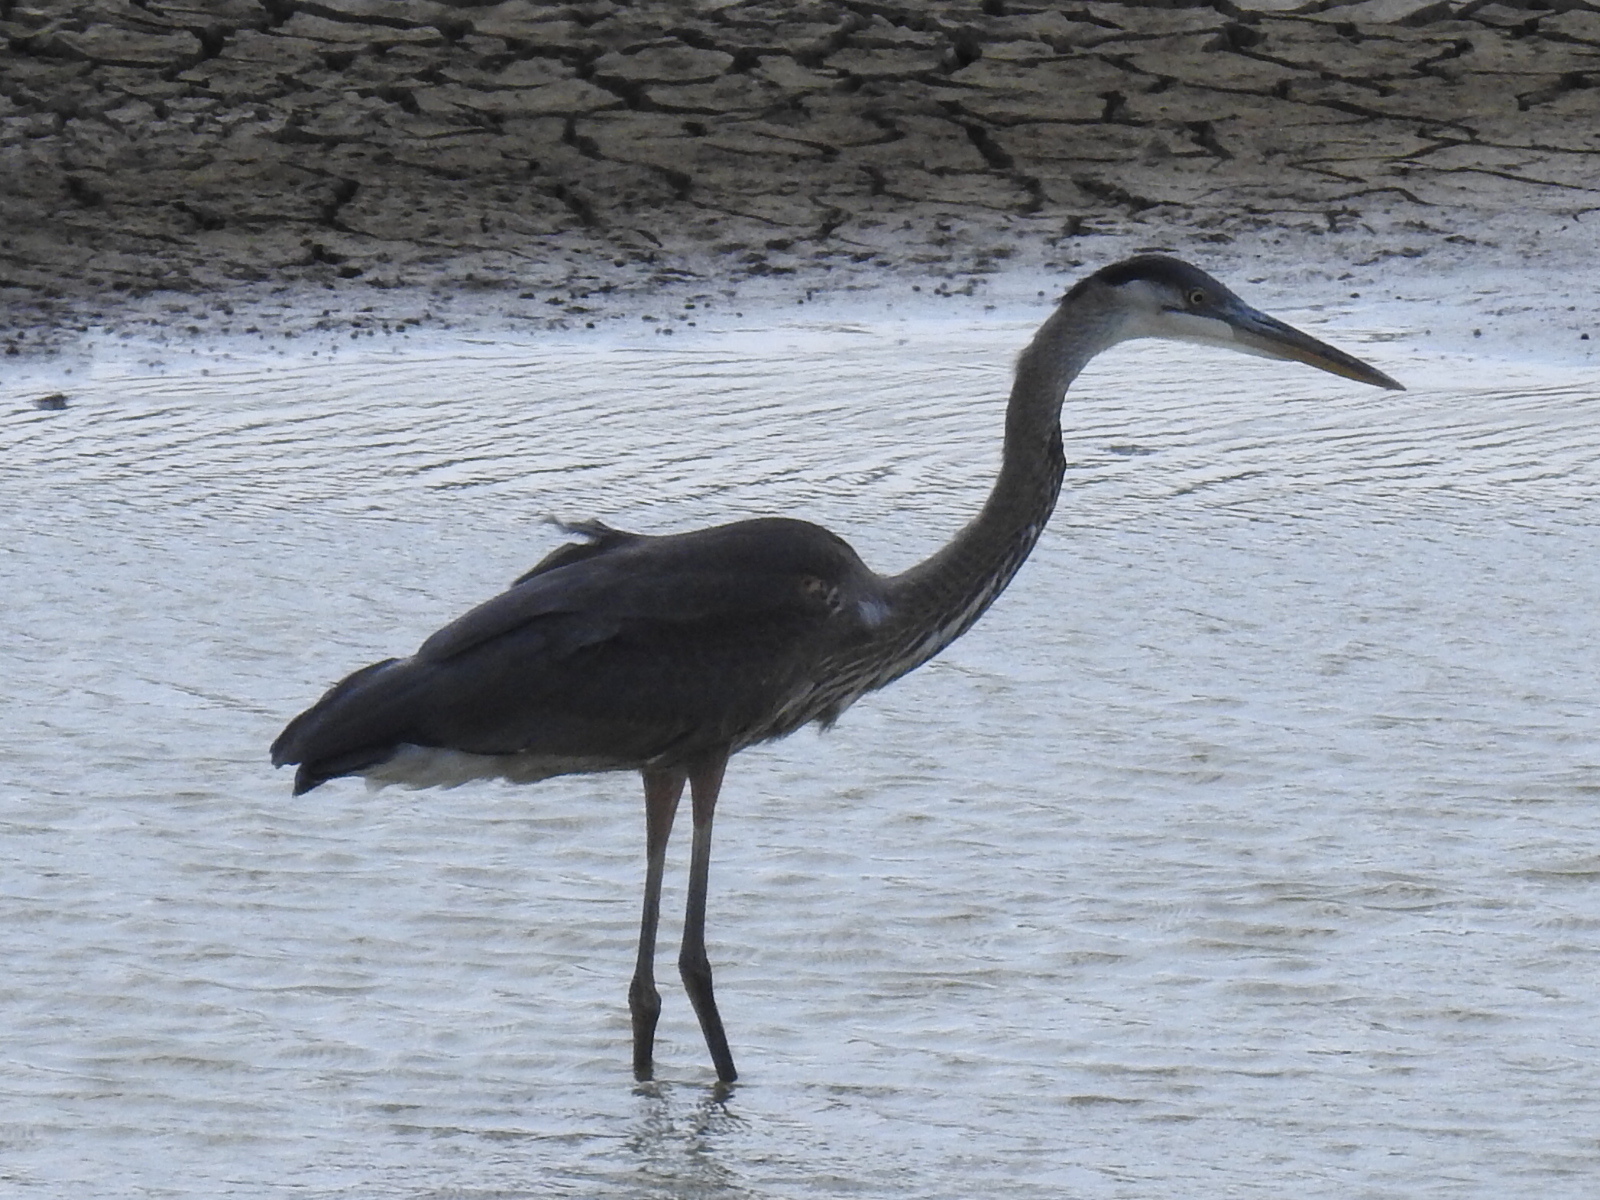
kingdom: Animalia
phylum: Chordata
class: Aves
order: Pelecaniformes
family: Ardeidae
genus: Ardea
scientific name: Ardea herodias
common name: Great blue heron
